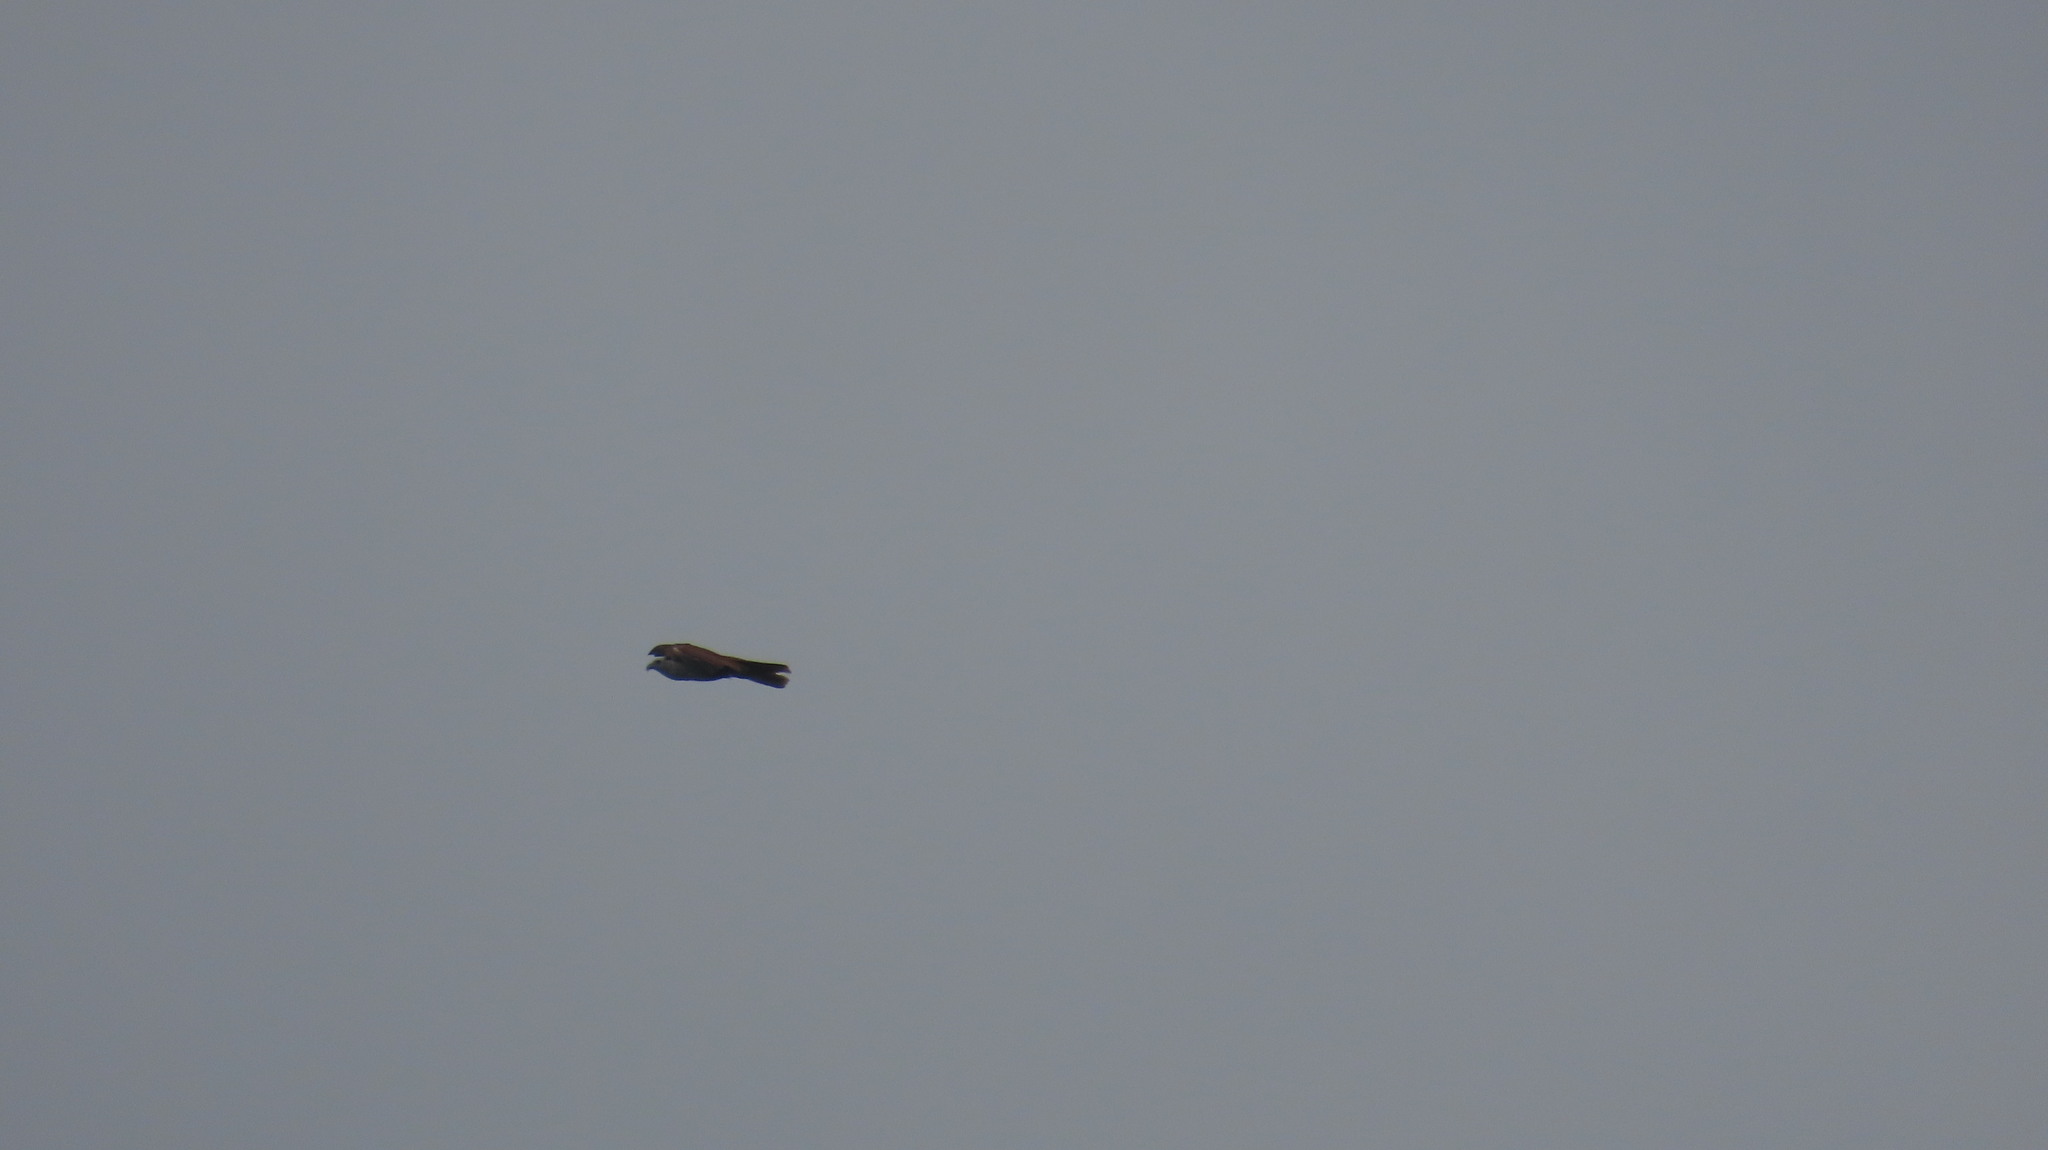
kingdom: Animalia
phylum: Chordata
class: Aves
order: Accipitriformes
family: Accipitridae
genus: Haliastur
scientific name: Haliastur indus
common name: Brahminy kite
